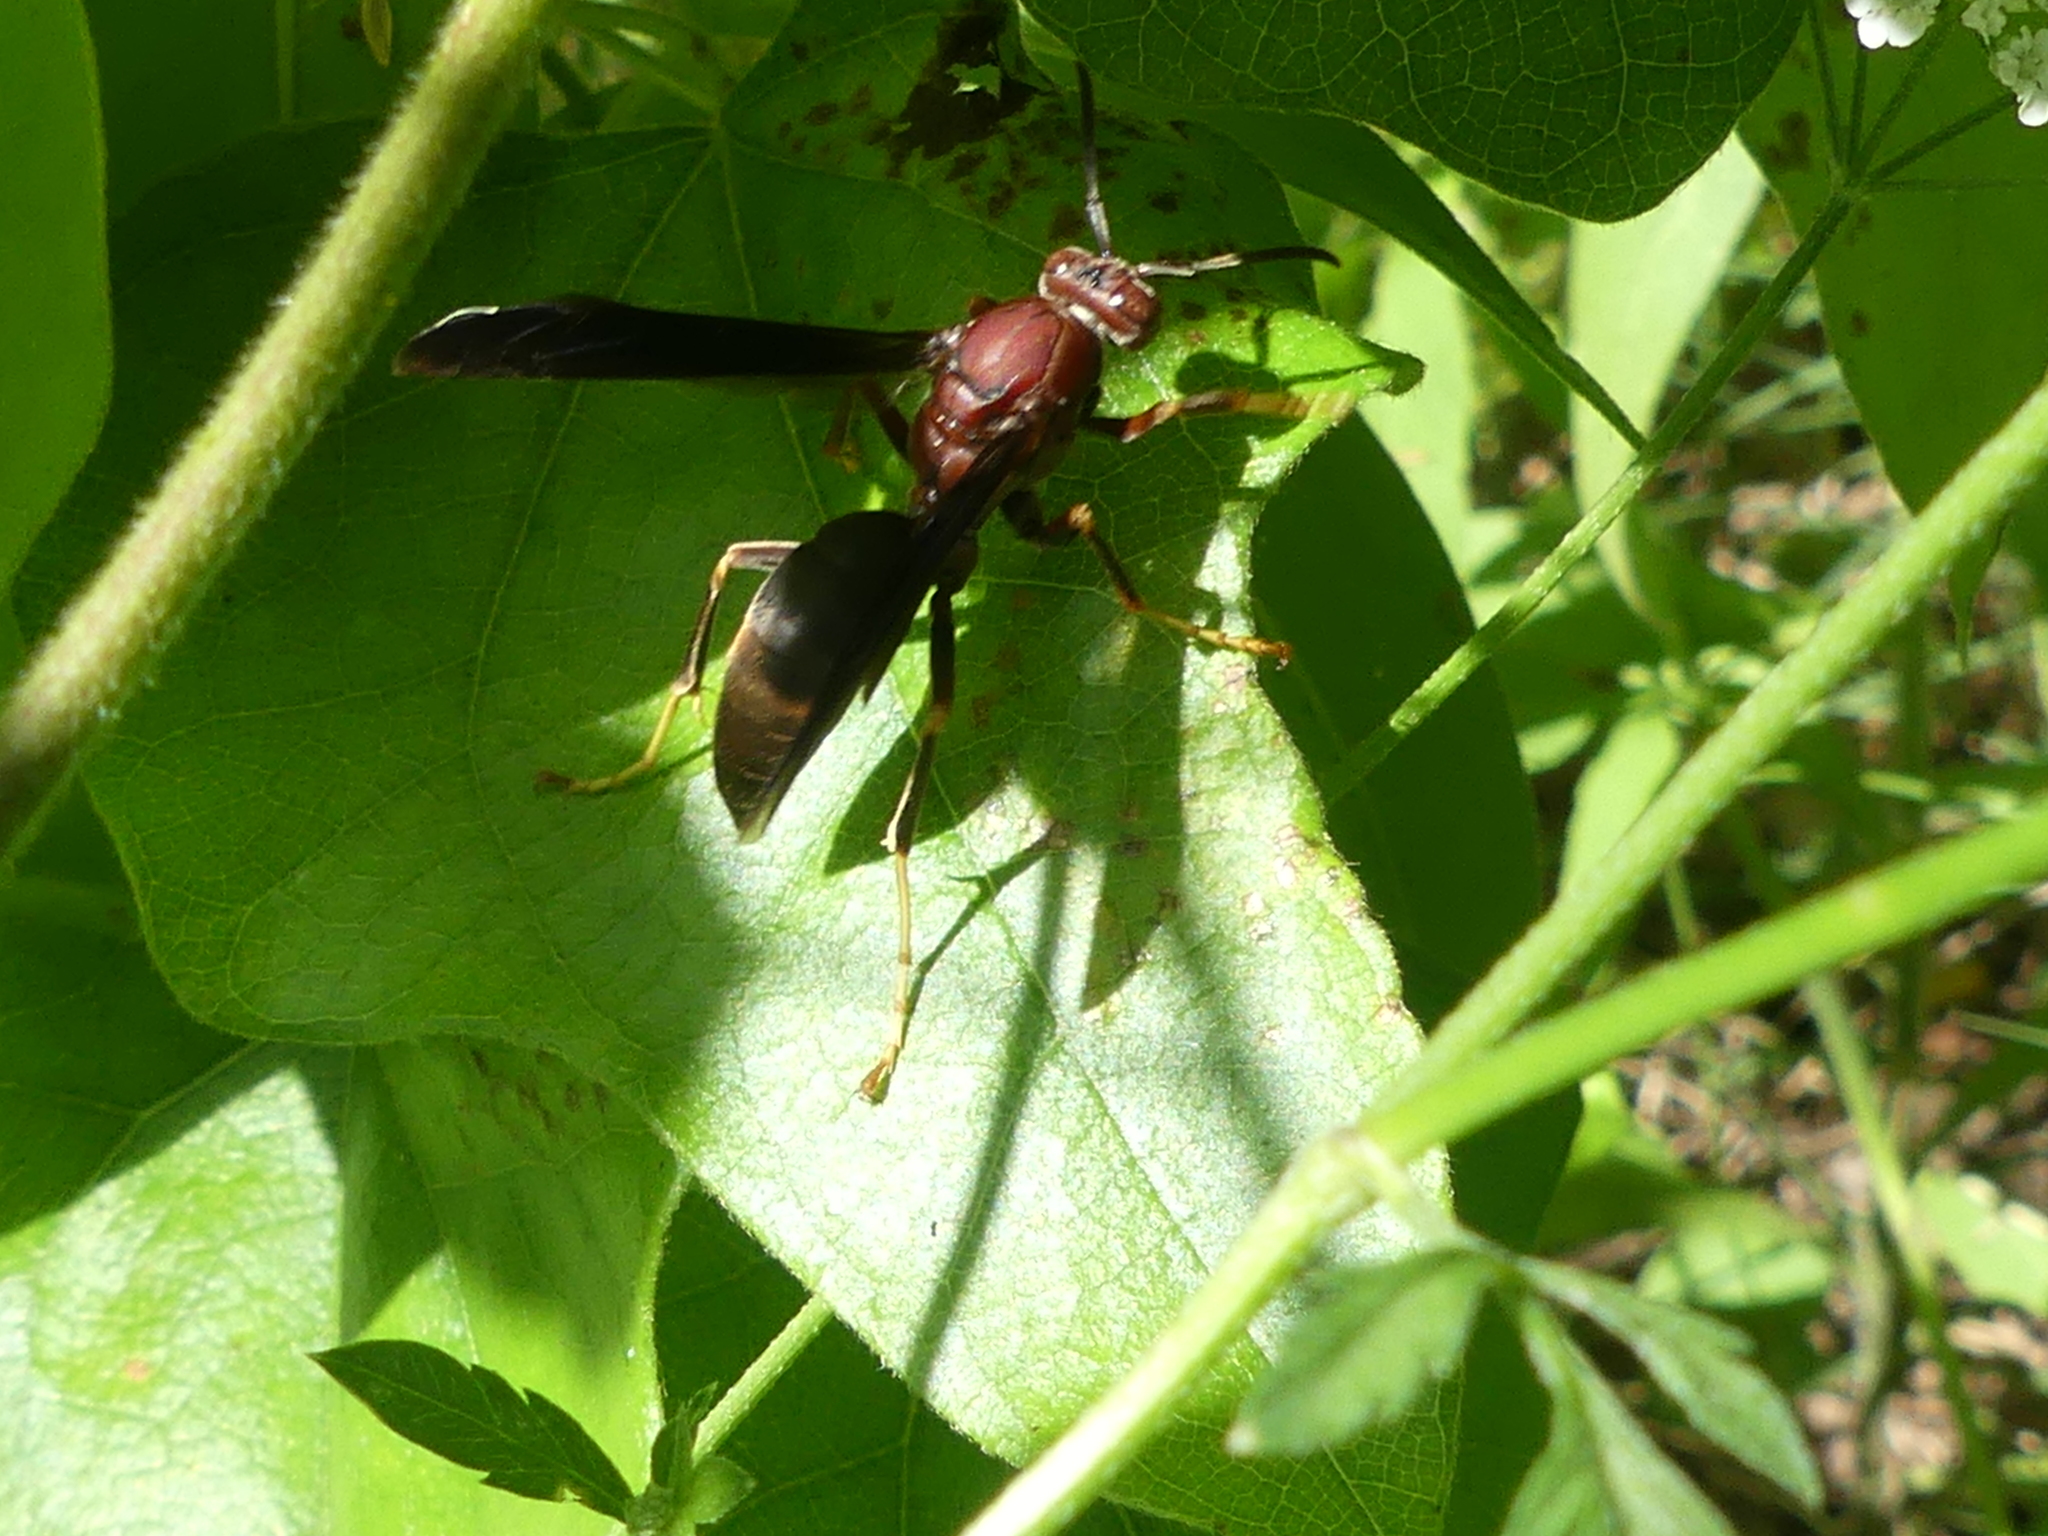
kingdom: Animalia
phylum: Arthropoda
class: Insecta
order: Hymenoptera
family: Eumenidae
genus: Polistes
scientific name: Polistes metricus
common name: Metric paper wasp
